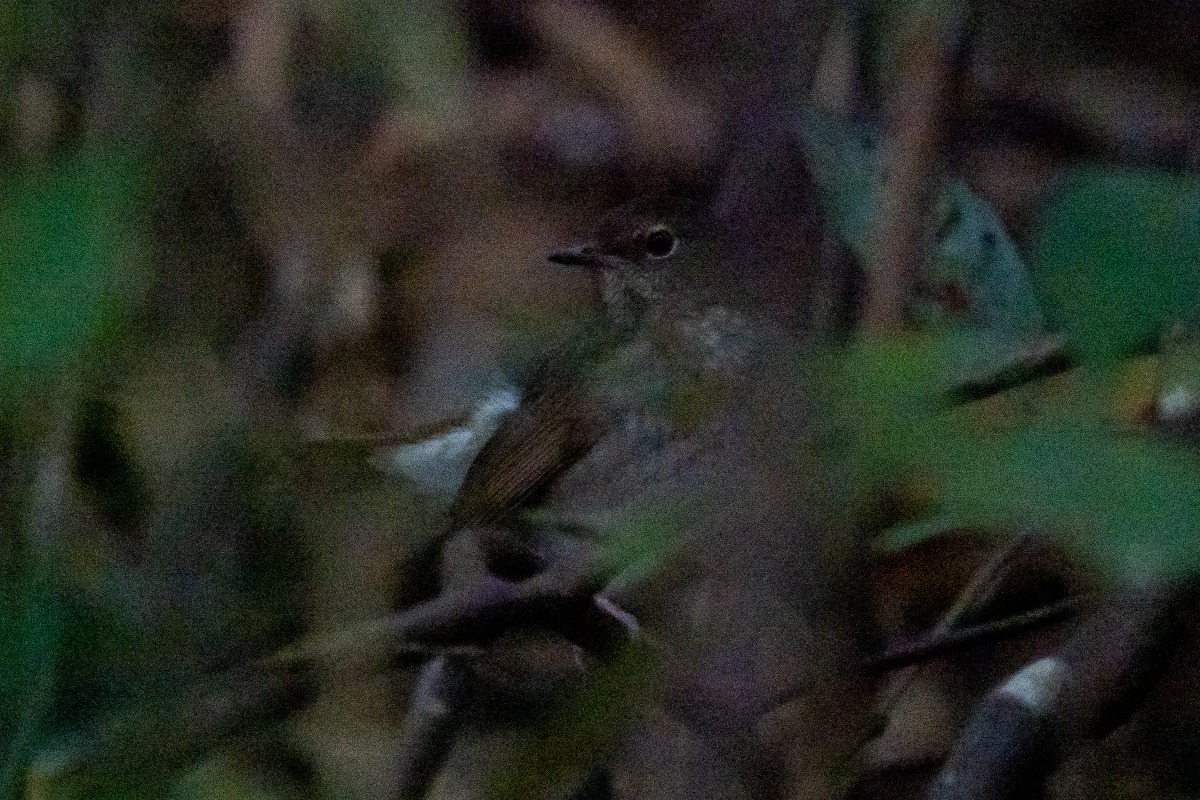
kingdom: Animalia
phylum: Chordata
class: Aves
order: Passeriformes
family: Muscicapidae
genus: Larvivora
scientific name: Larvivora sibilans
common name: Rufous-tailed robin
